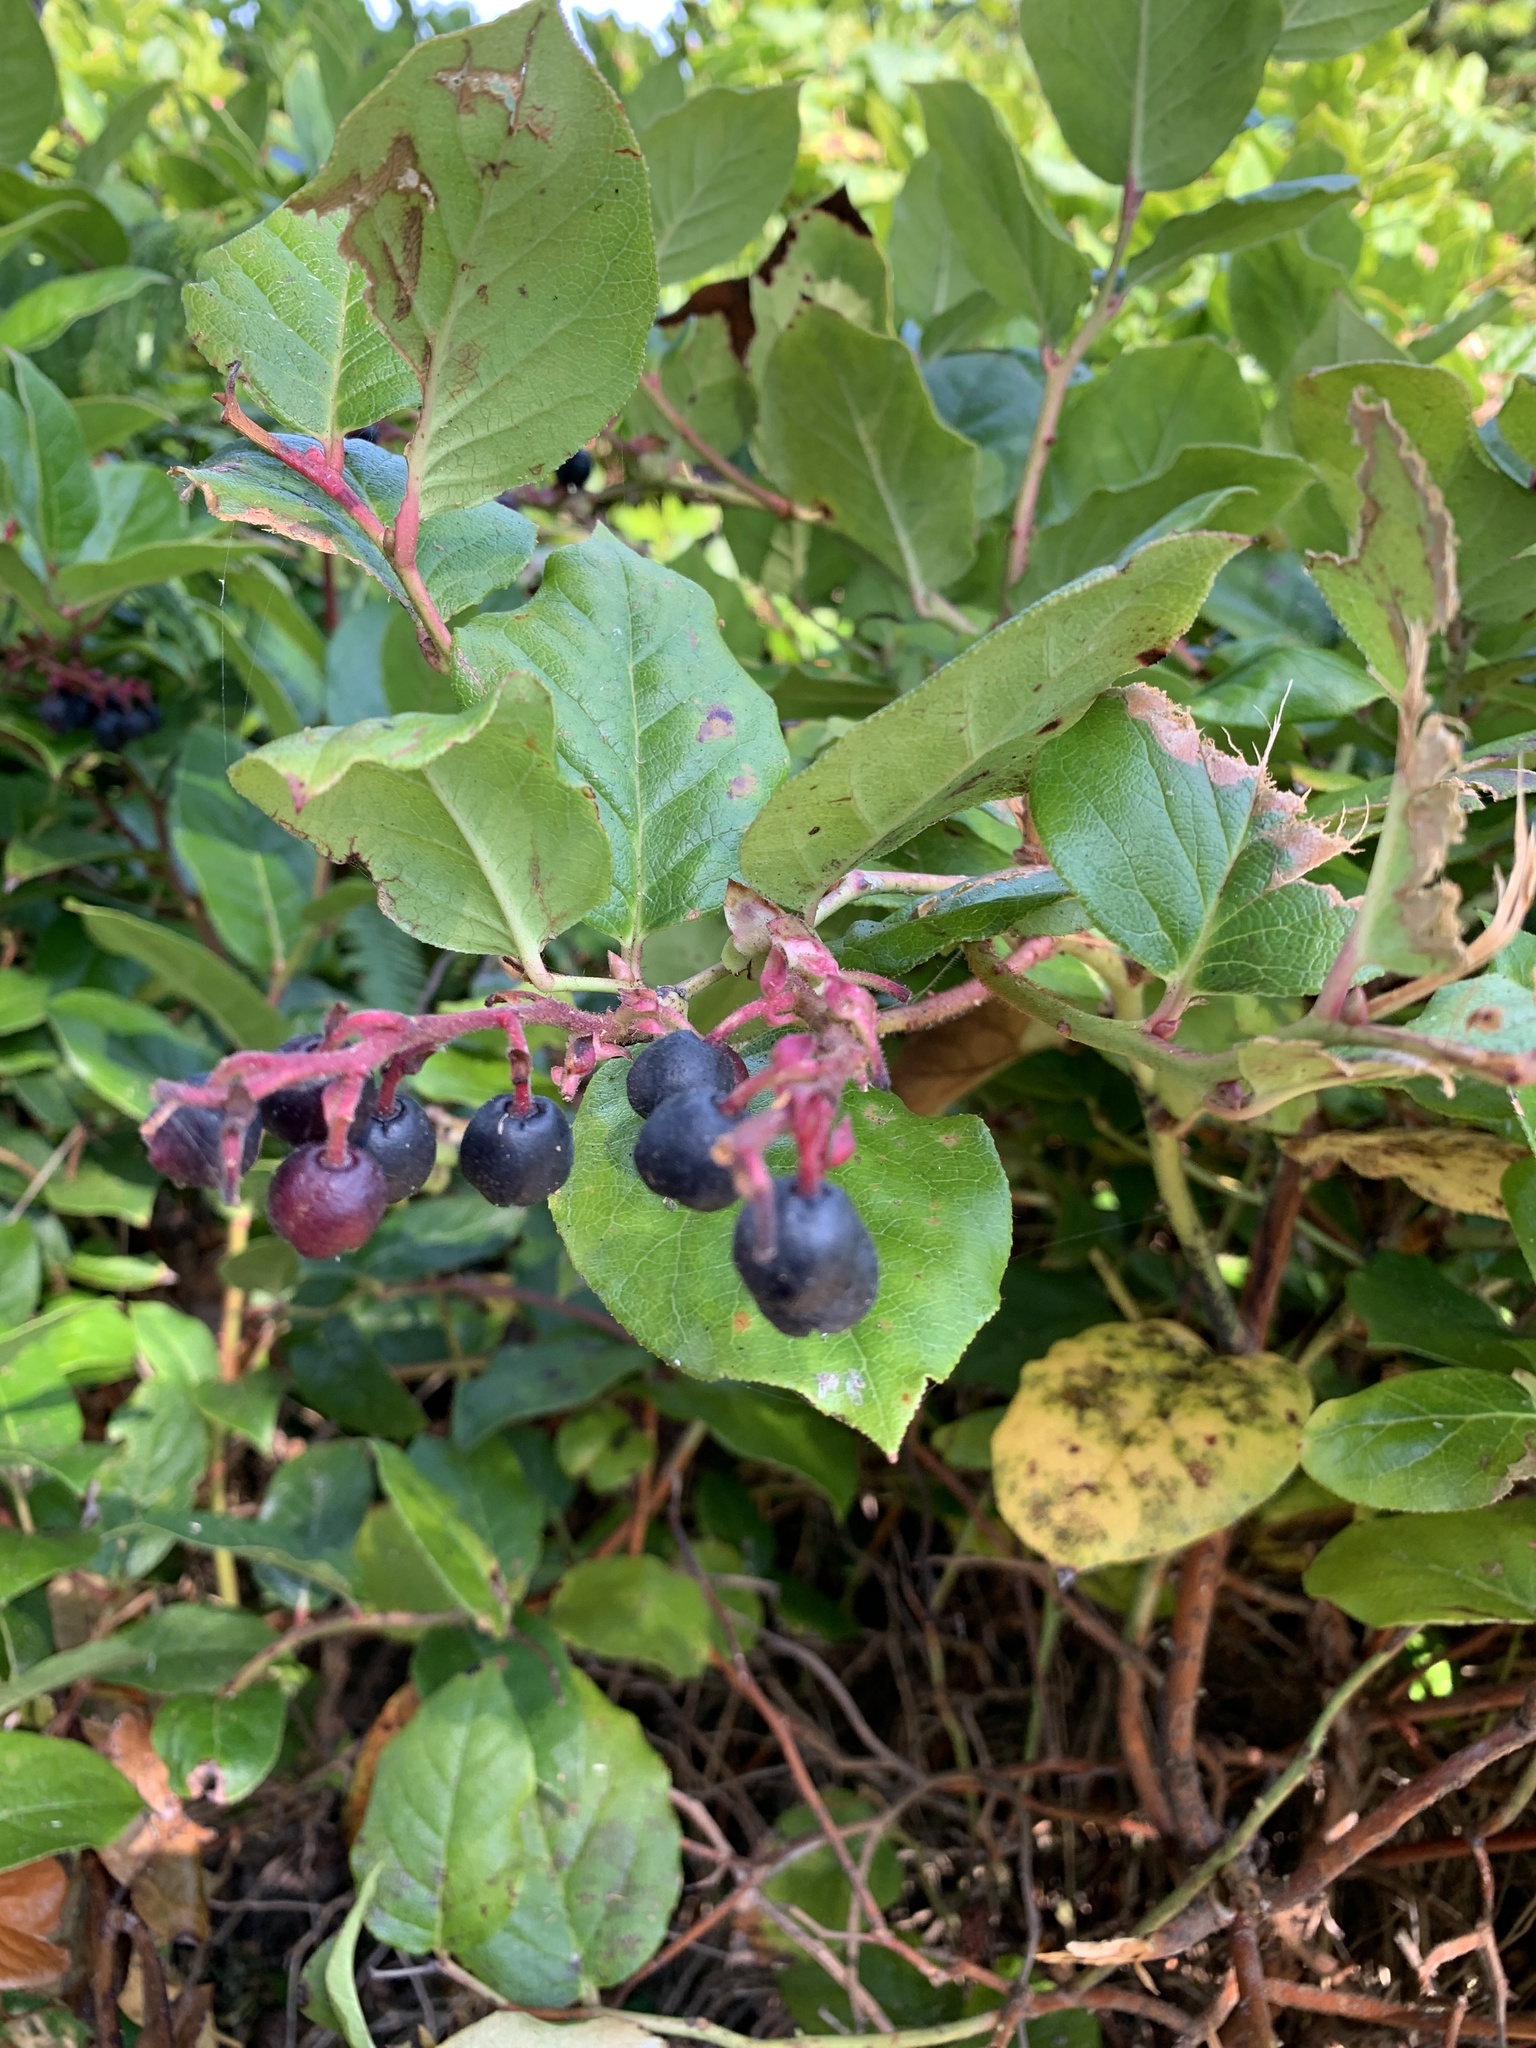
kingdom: Plantae
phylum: Tracheophyta
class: Magnoliopsida
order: Ericales
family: Ericaceae
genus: Gaultheria
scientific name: Gaultheria shallon
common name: Shallon
